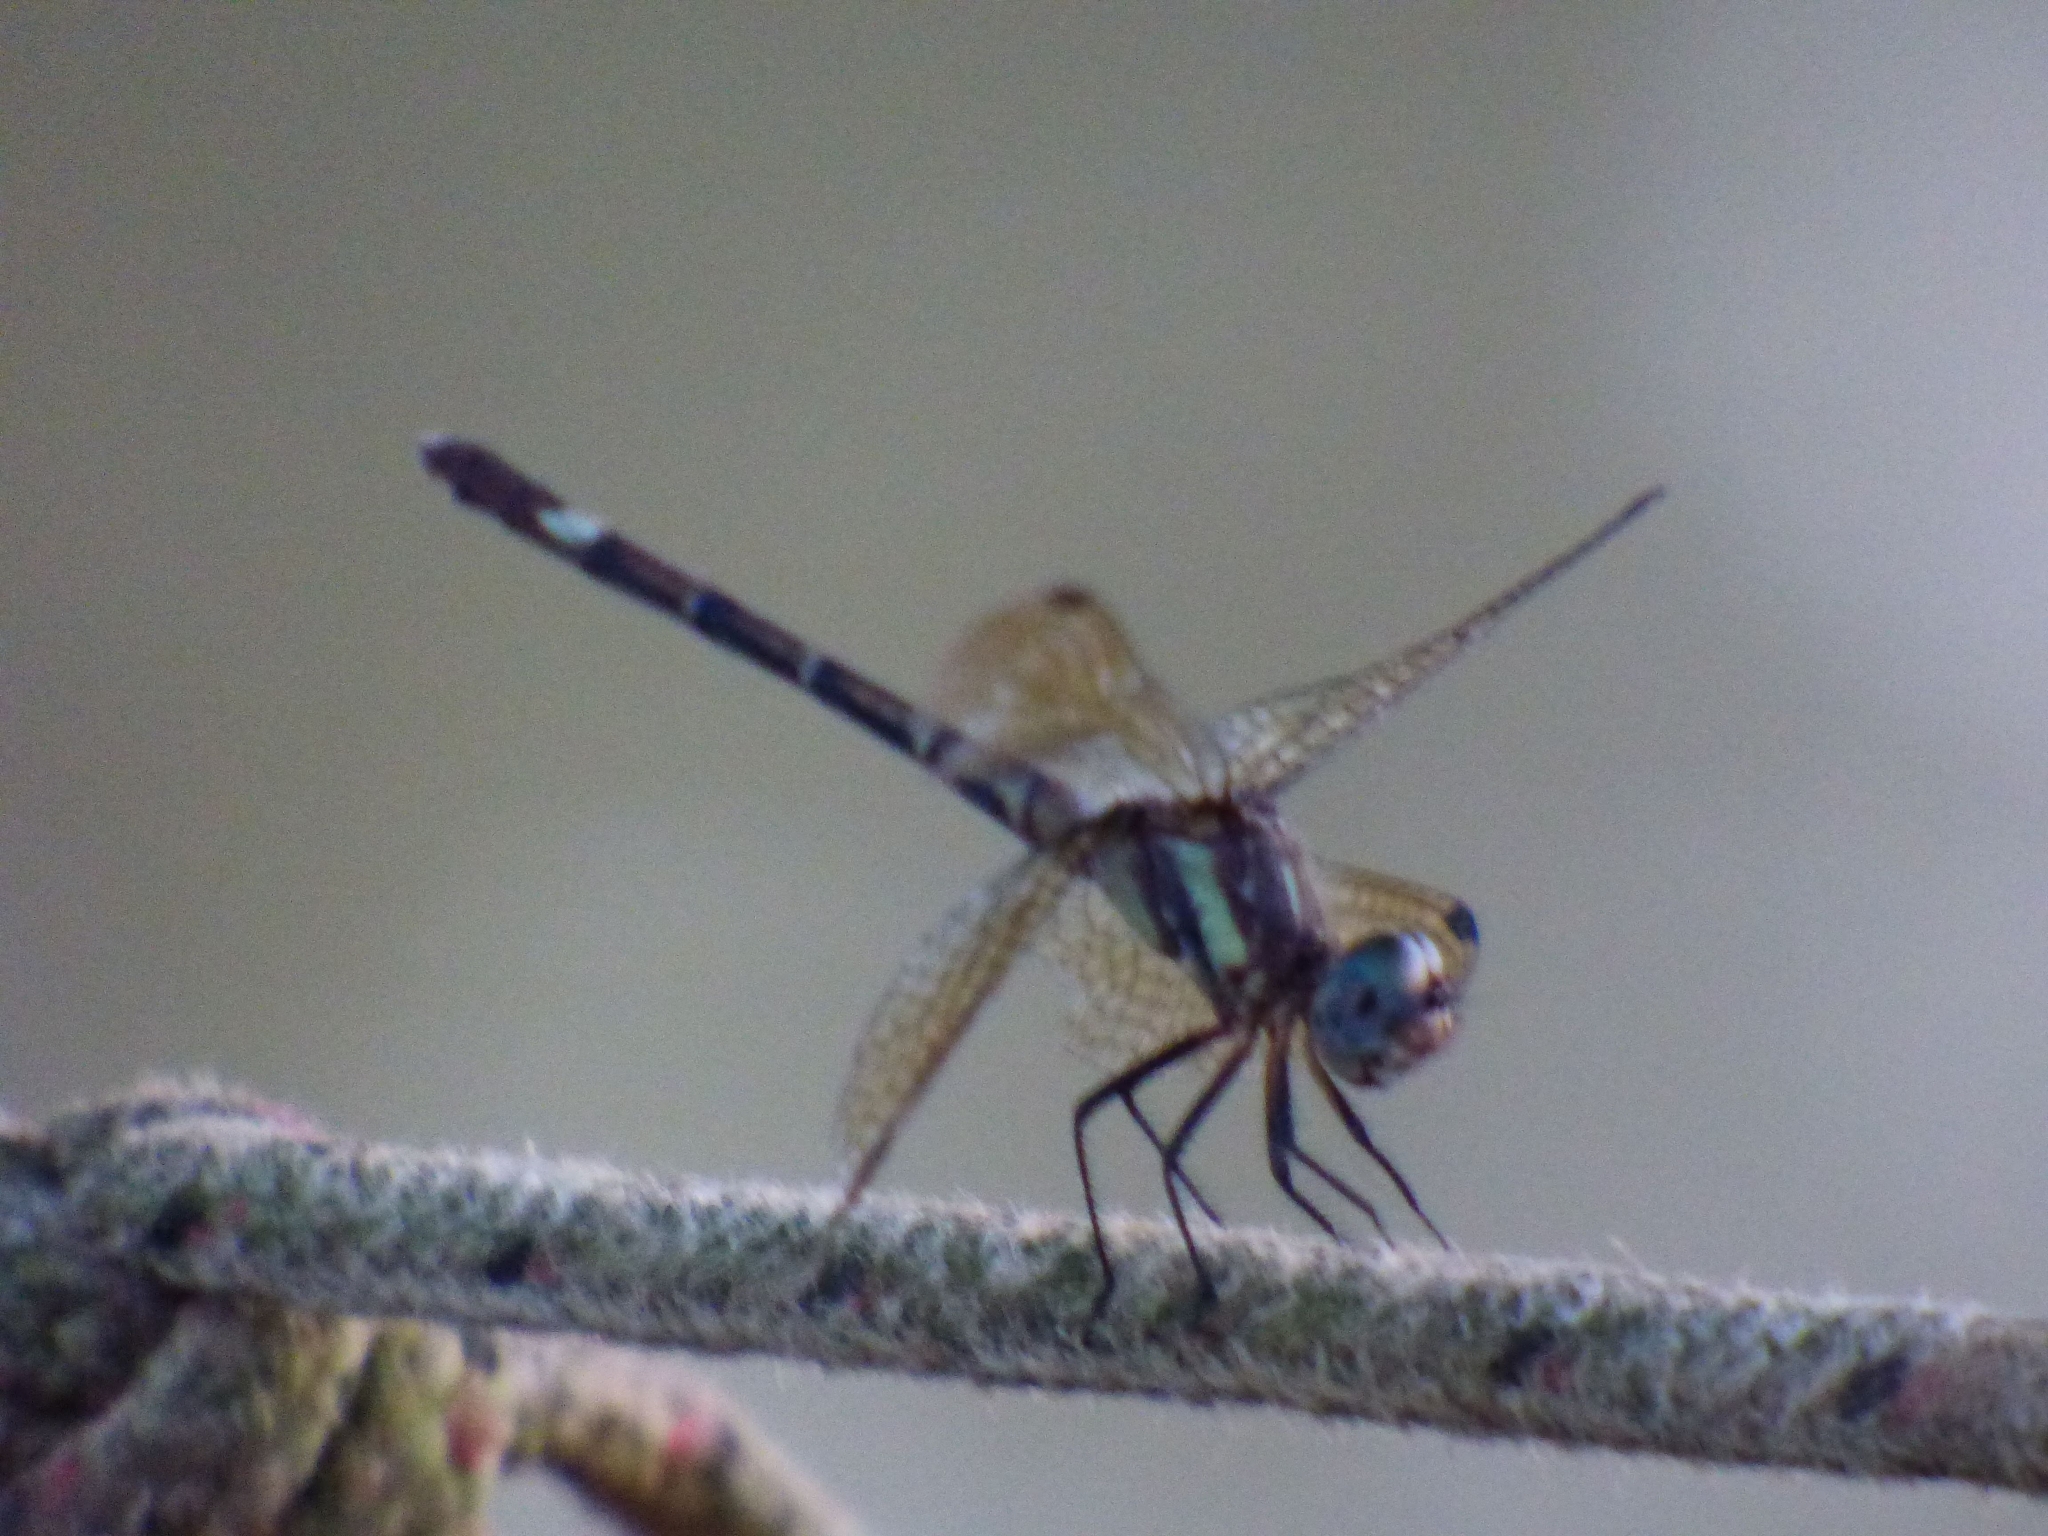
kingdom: Animalia
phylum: Arthropoda
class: Insecta
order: Odonata
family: Libellulidae
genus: Micrathyria
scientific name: Micrathyria hypodidyma
